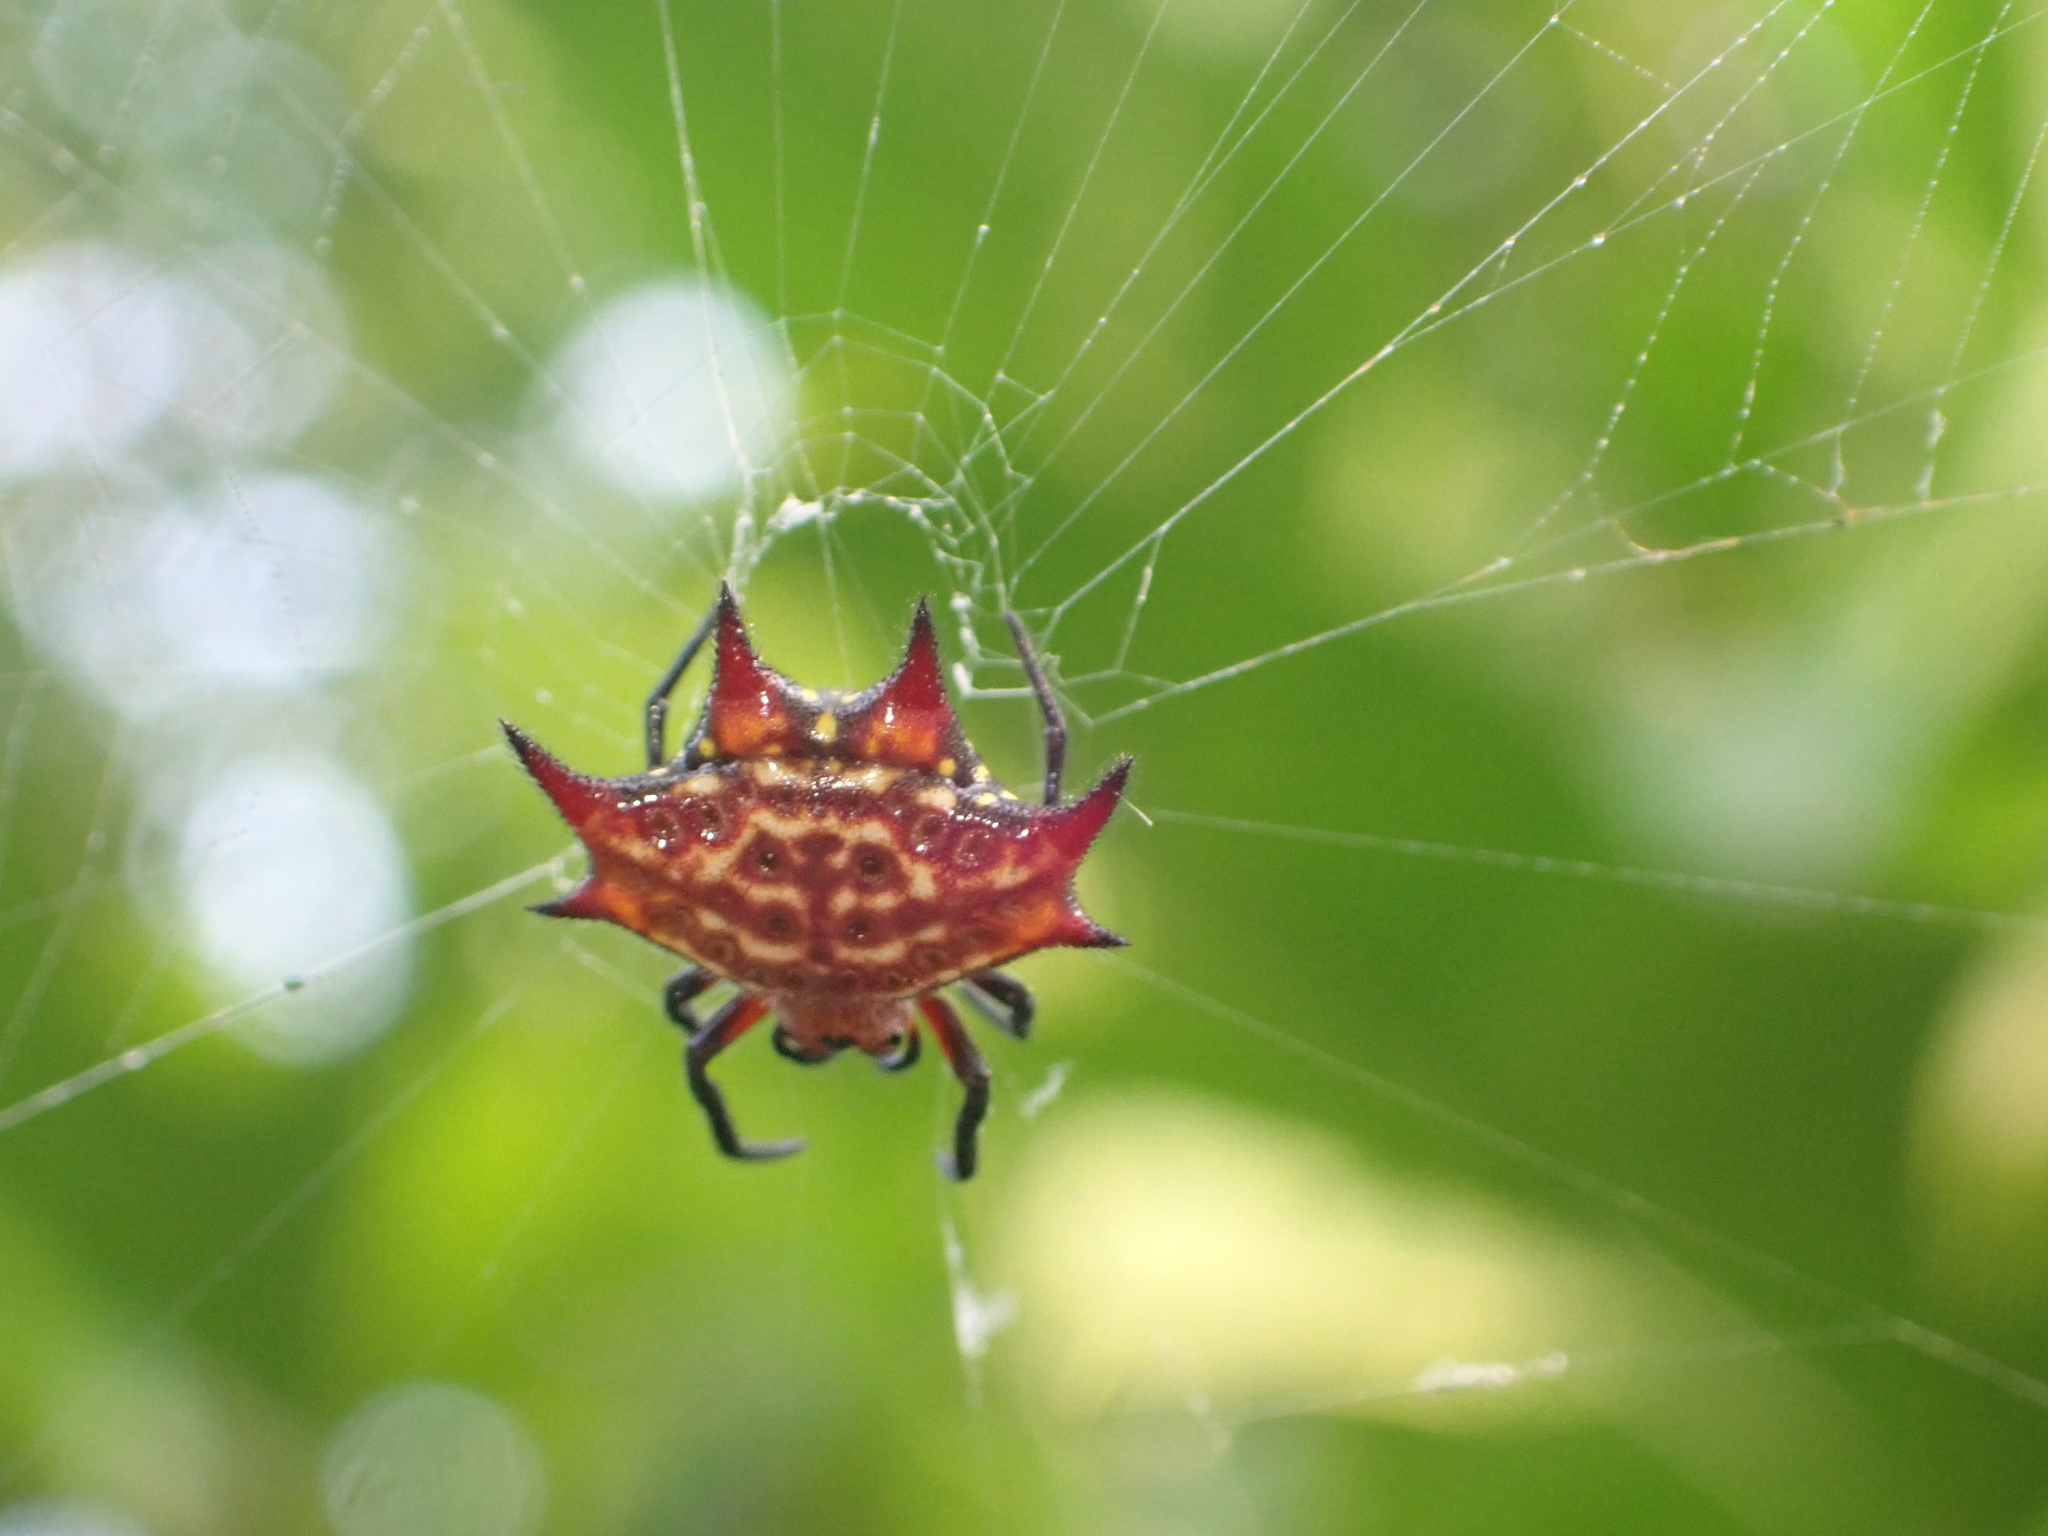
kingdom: Animalia
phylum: Arthropoda
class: Arachnida
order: Araneae
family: Araneidae
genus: Gasteracantha
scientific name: Gasteracantha curvispina
